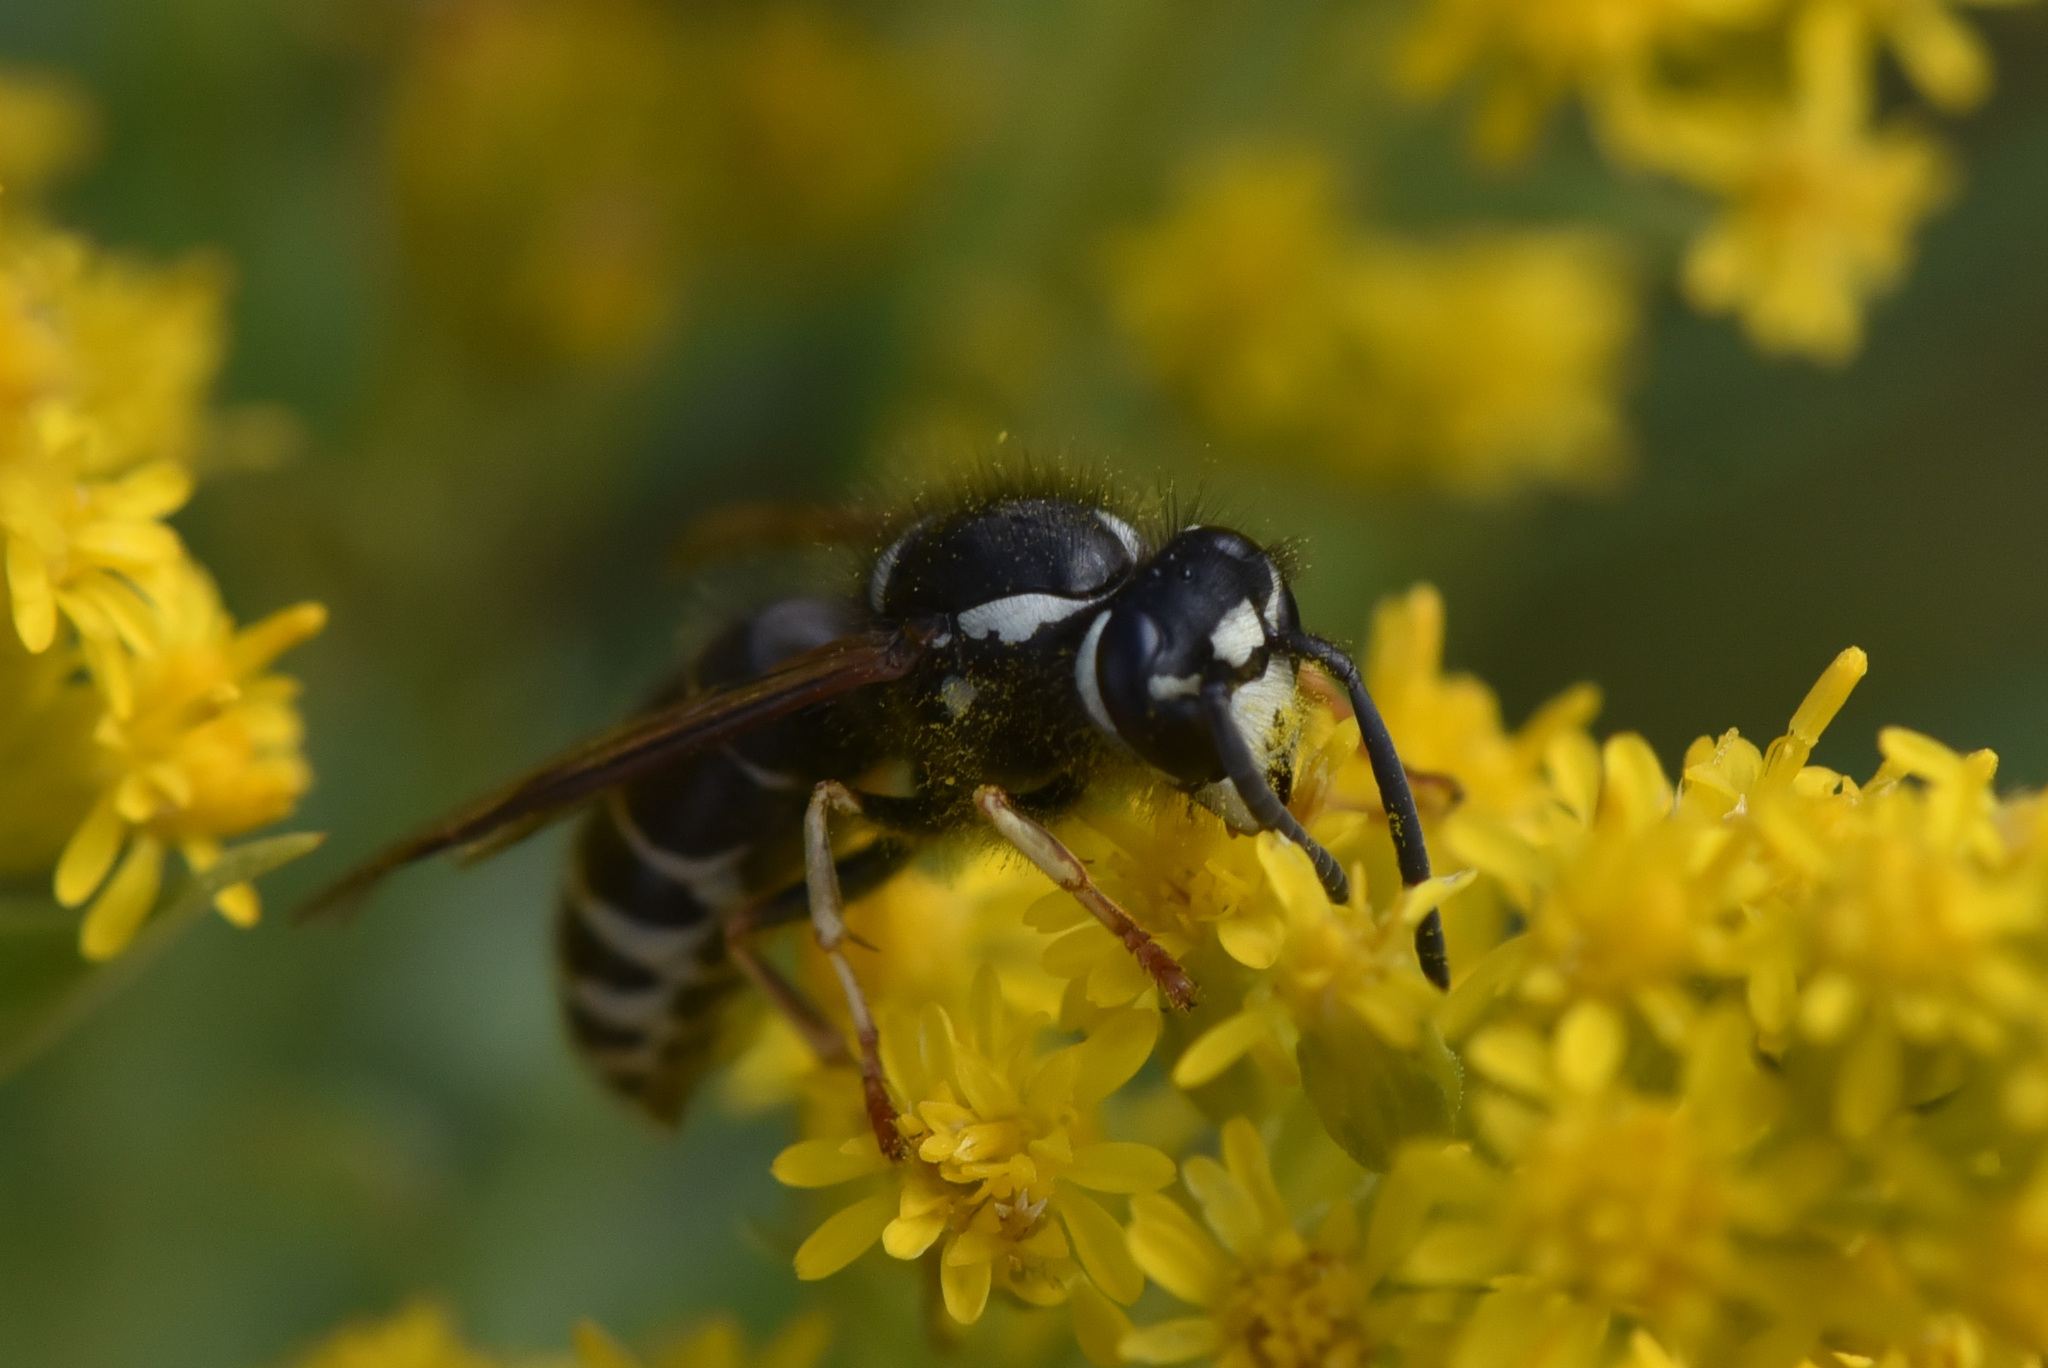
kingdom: Animalia
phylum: Arthropoda
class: Insecta
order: Hymenoptera
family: Vespidae
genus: Vespula
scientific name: Vespula consobrina
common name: Blackjacket
